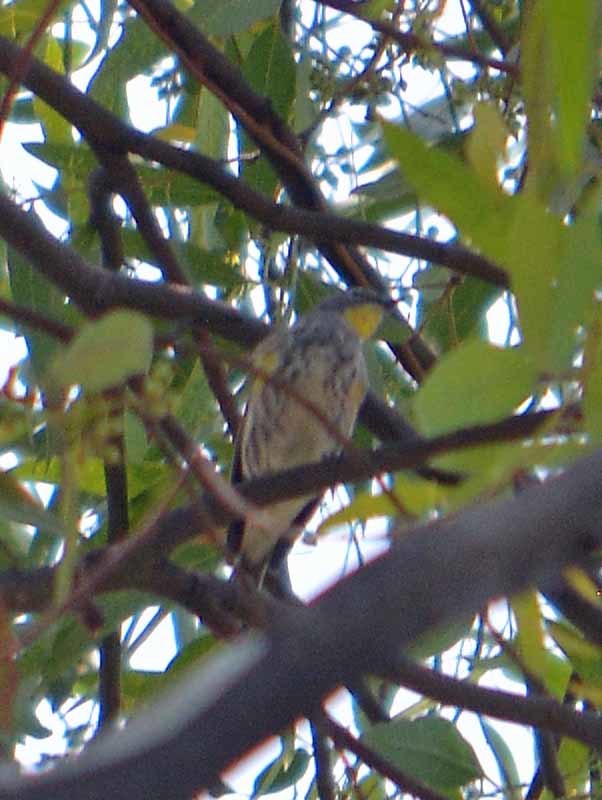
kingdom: Animalia
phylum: Chordata
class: Aves
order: Passeriformes
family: Parulidae
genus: Setophaga
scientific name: Setophaga coronata
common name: Myrtle warbler
